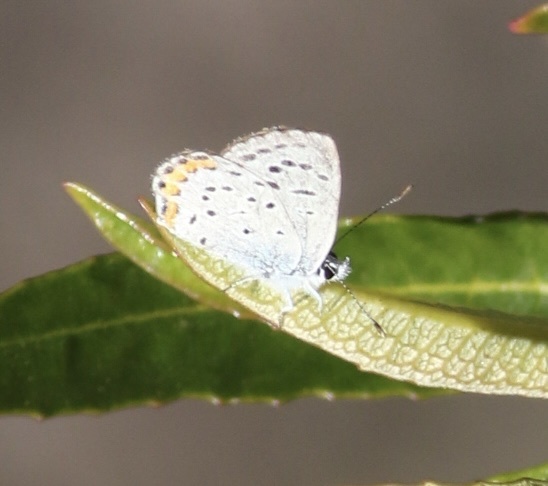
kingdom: Animalia
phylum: Arthropoda
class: Insecta
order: Lepidoptera
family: Lycaenidae
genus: Icaricia
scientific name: Icaricia acmon
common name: Acmon blue
